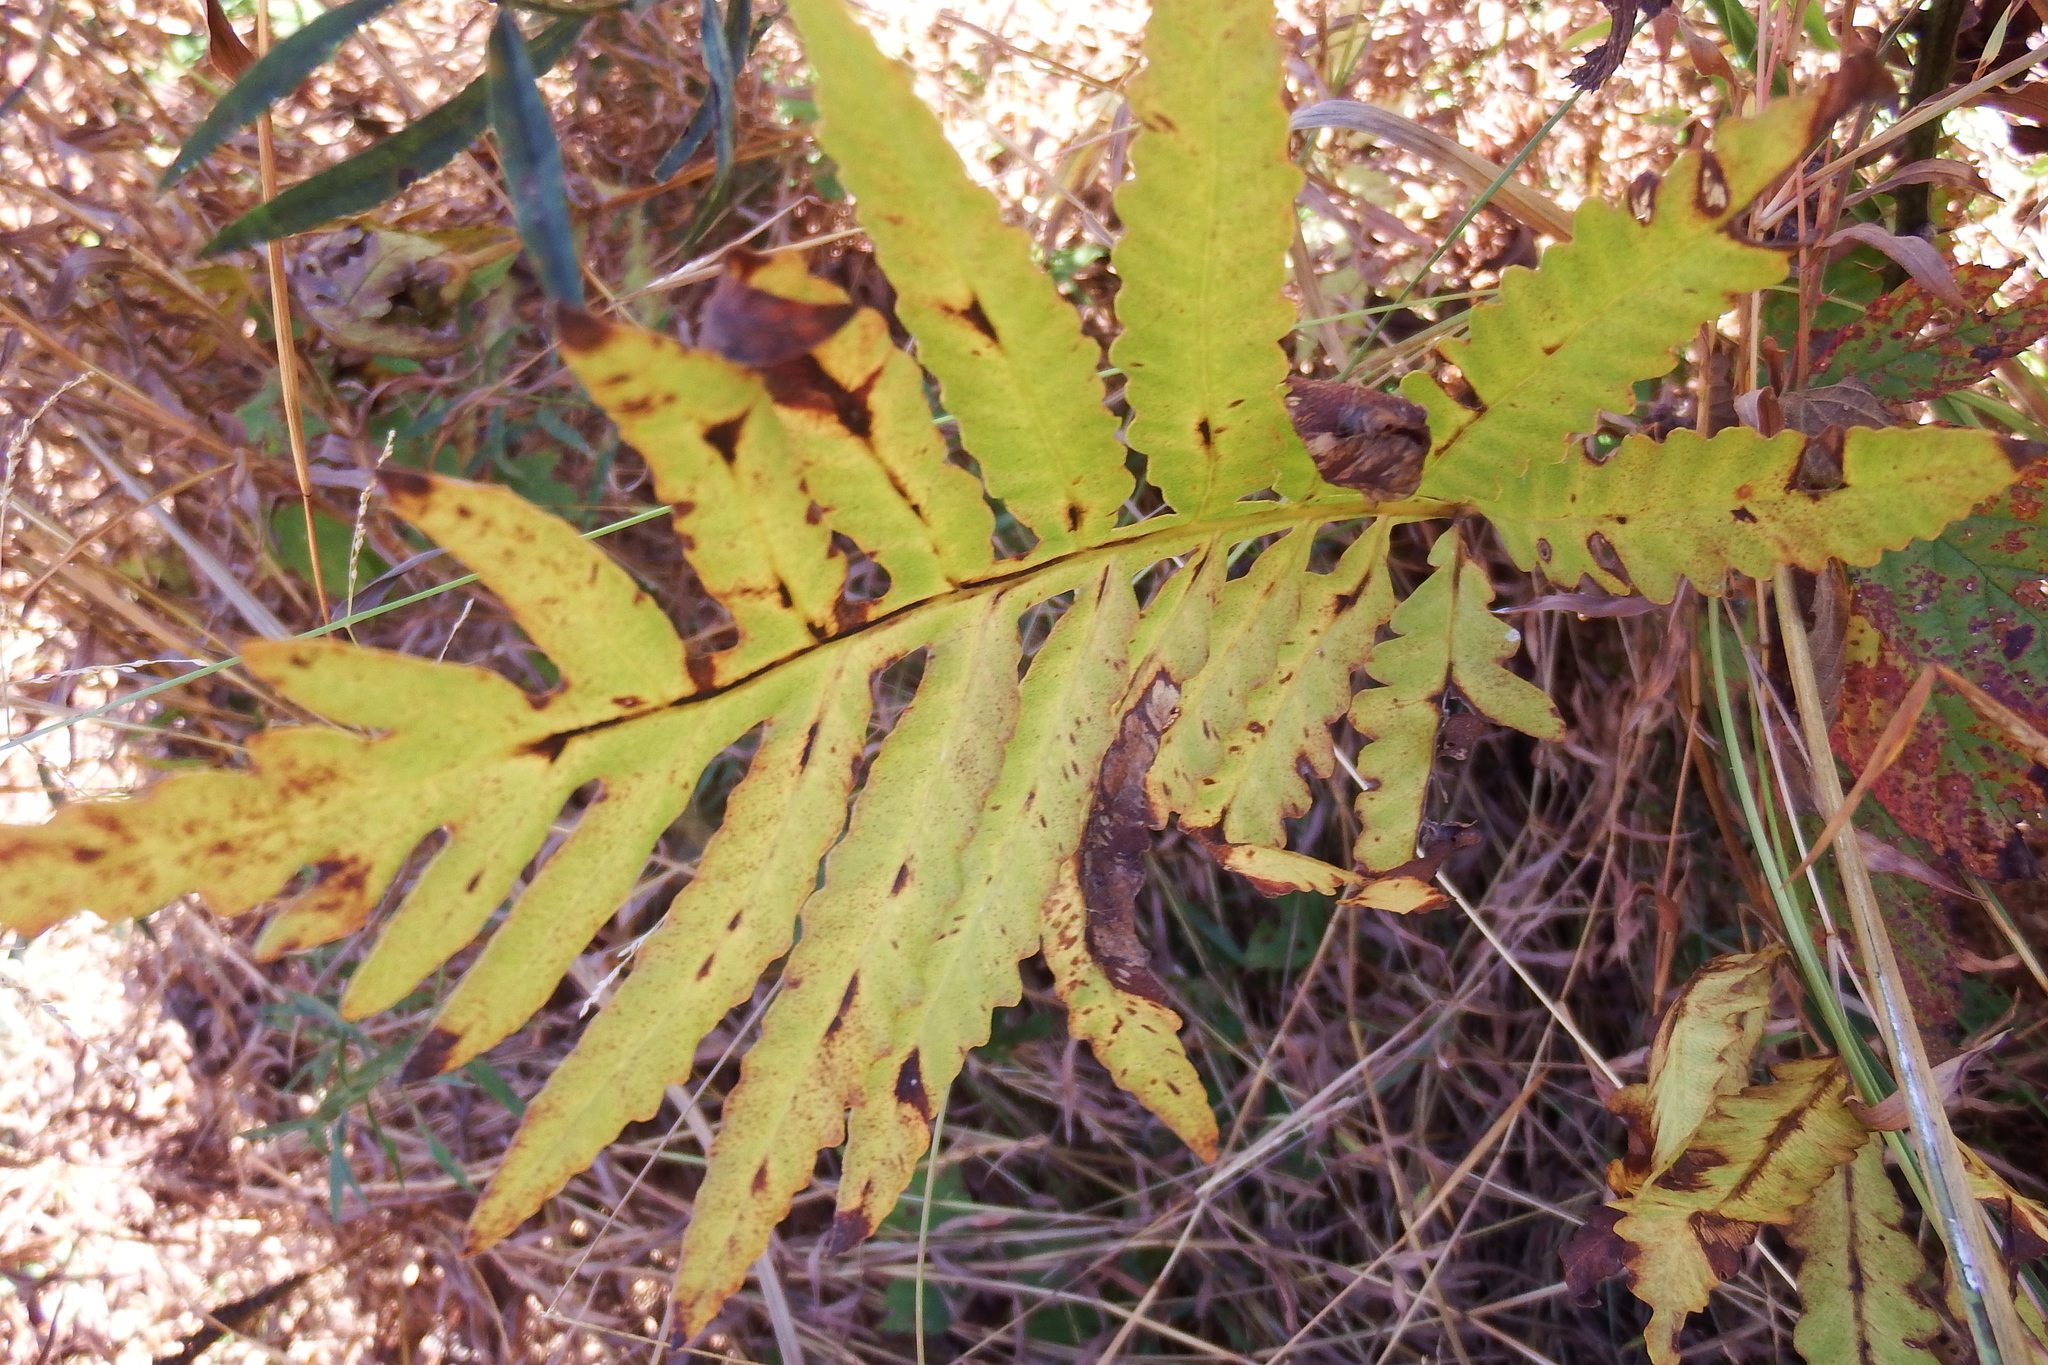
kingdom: Plantae
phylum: Tracheophyta
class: Polypodiopsida
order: Polypodiales
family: Onocleaceae
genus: Onoclea
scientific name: Onoclea sensibilis
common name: Sensitive fern
